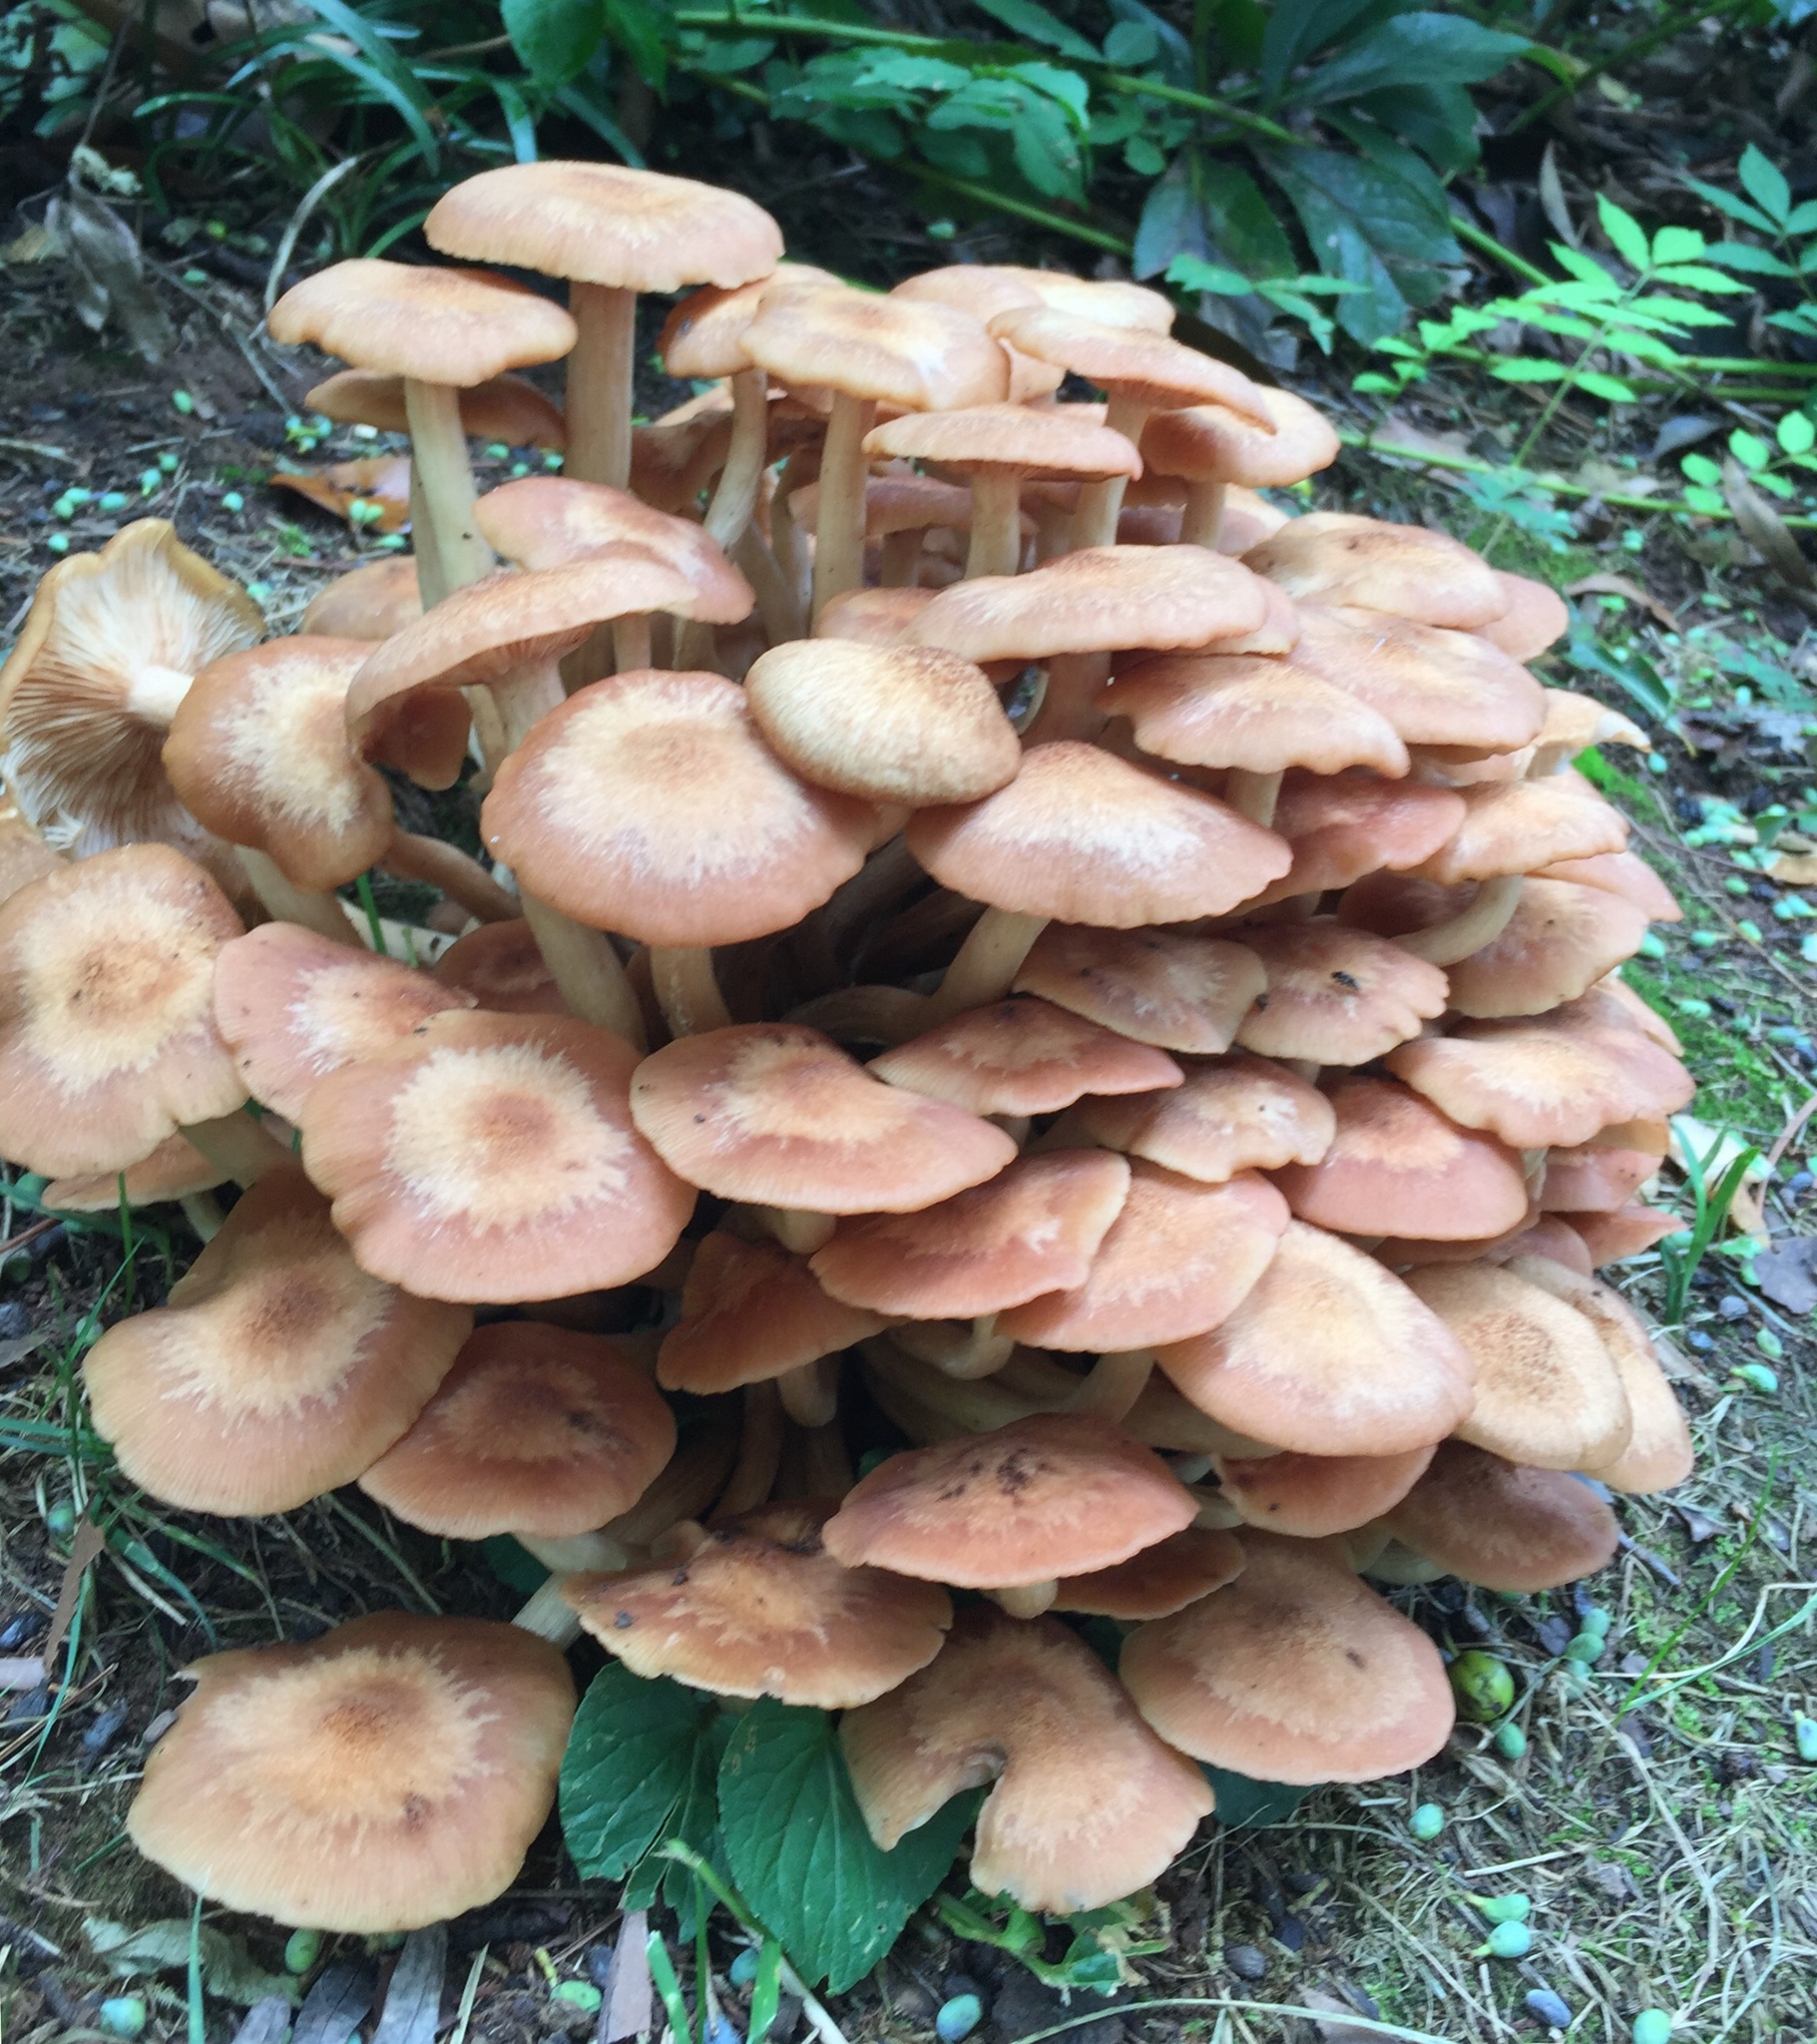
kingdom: Fungi
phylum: Basidiomycota
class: Agaricomycetes
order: Agaricales
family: Physalacriaceae
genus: Desarmillaria
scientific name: Desarmillaria caespitosa
